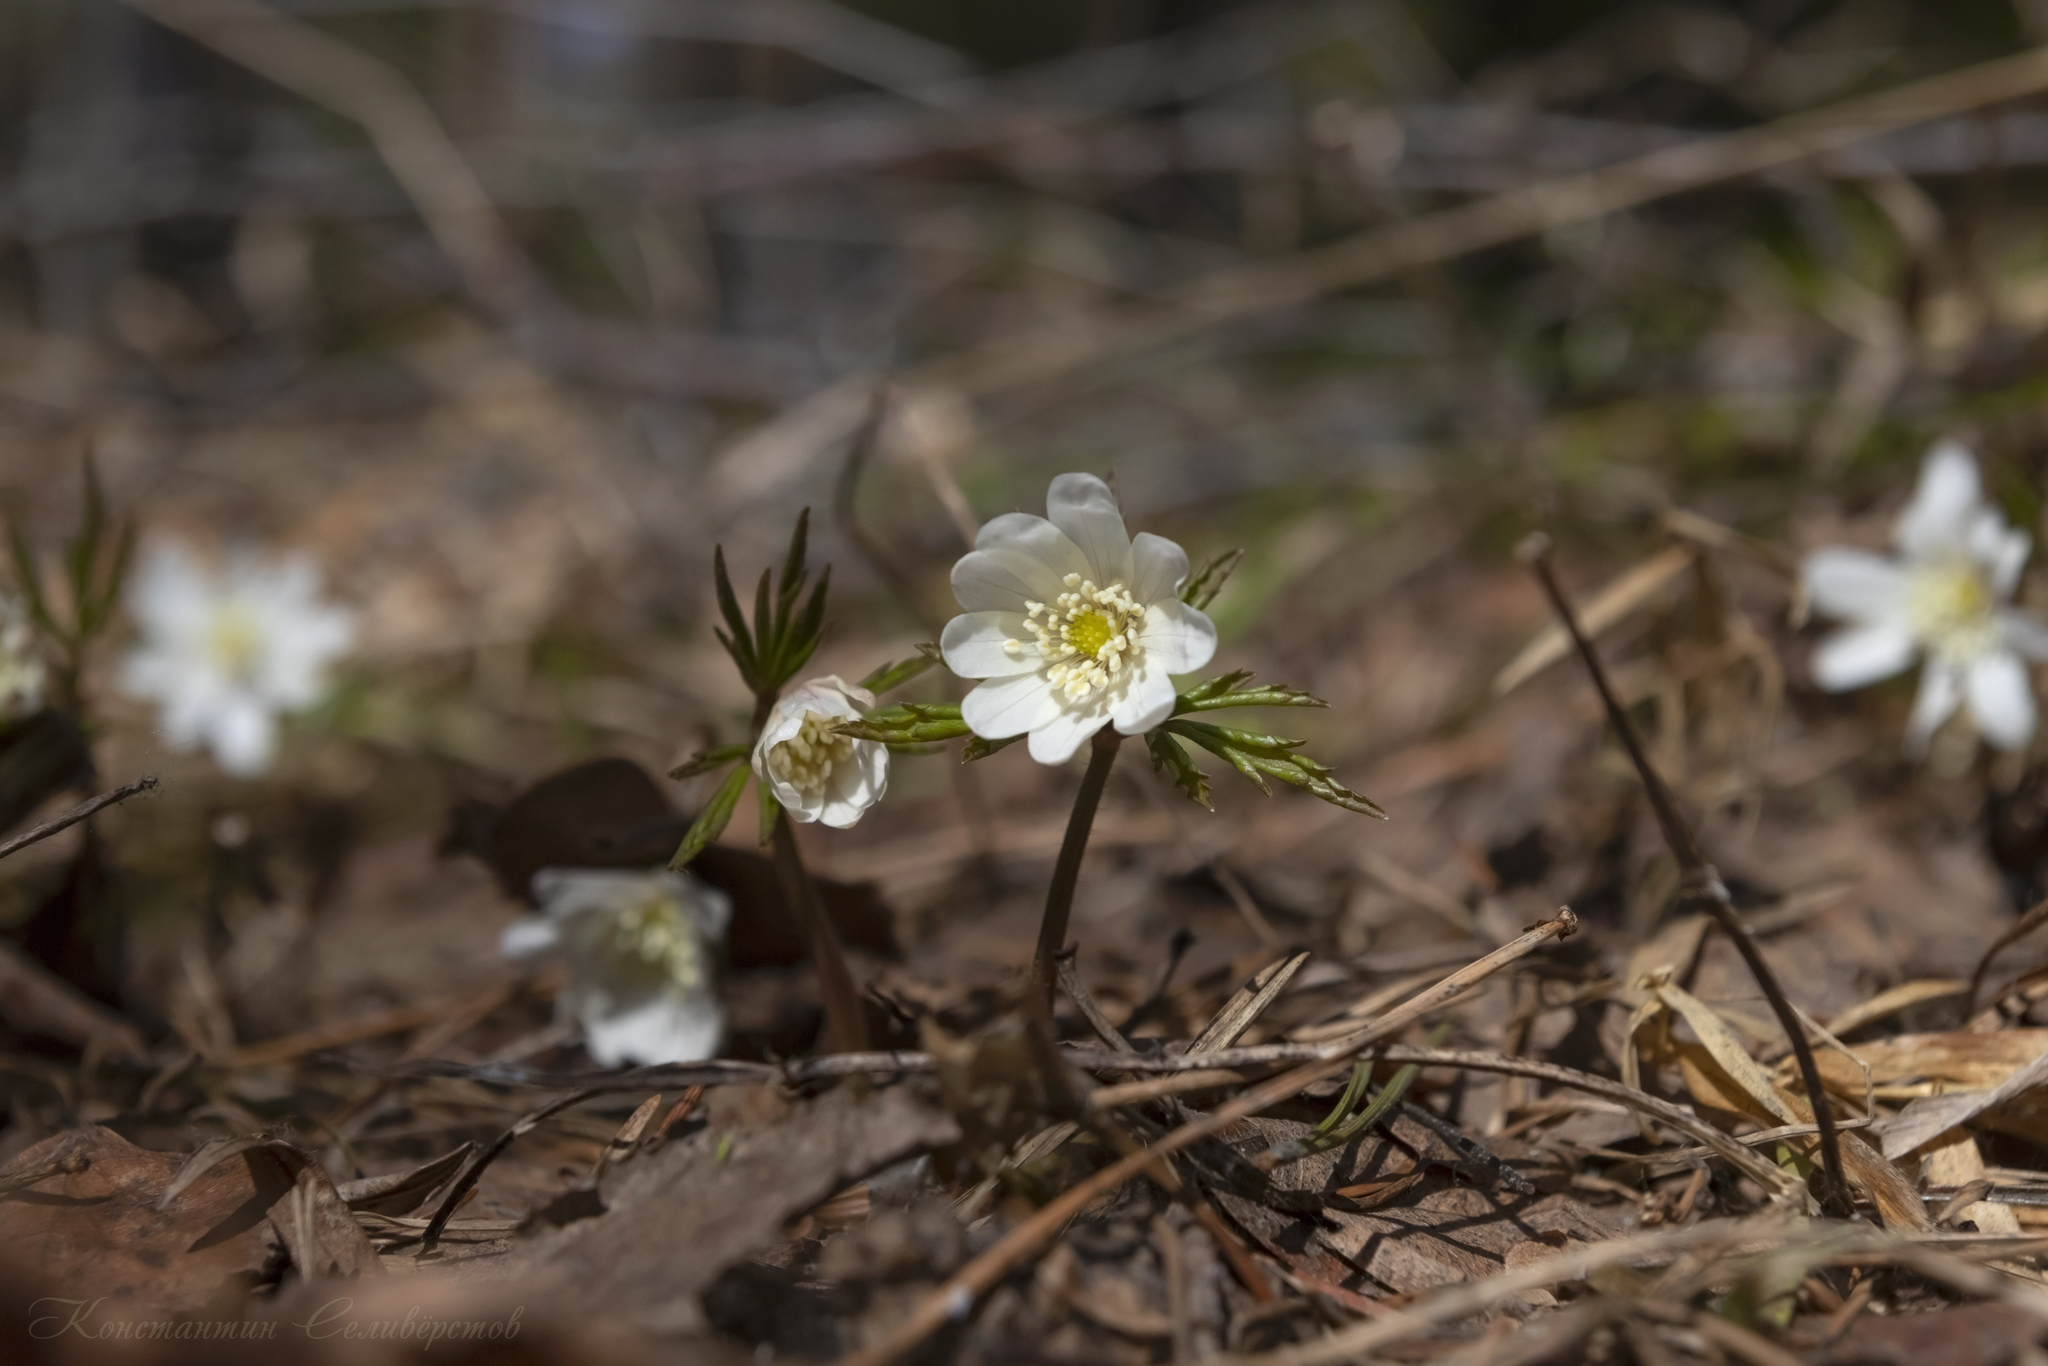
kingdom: Plantae
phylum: Tracheophyta
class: Magnoliopsida
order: Ranunculales
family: Ranunculaceae
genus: Anemone
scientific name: Anemone altaica
